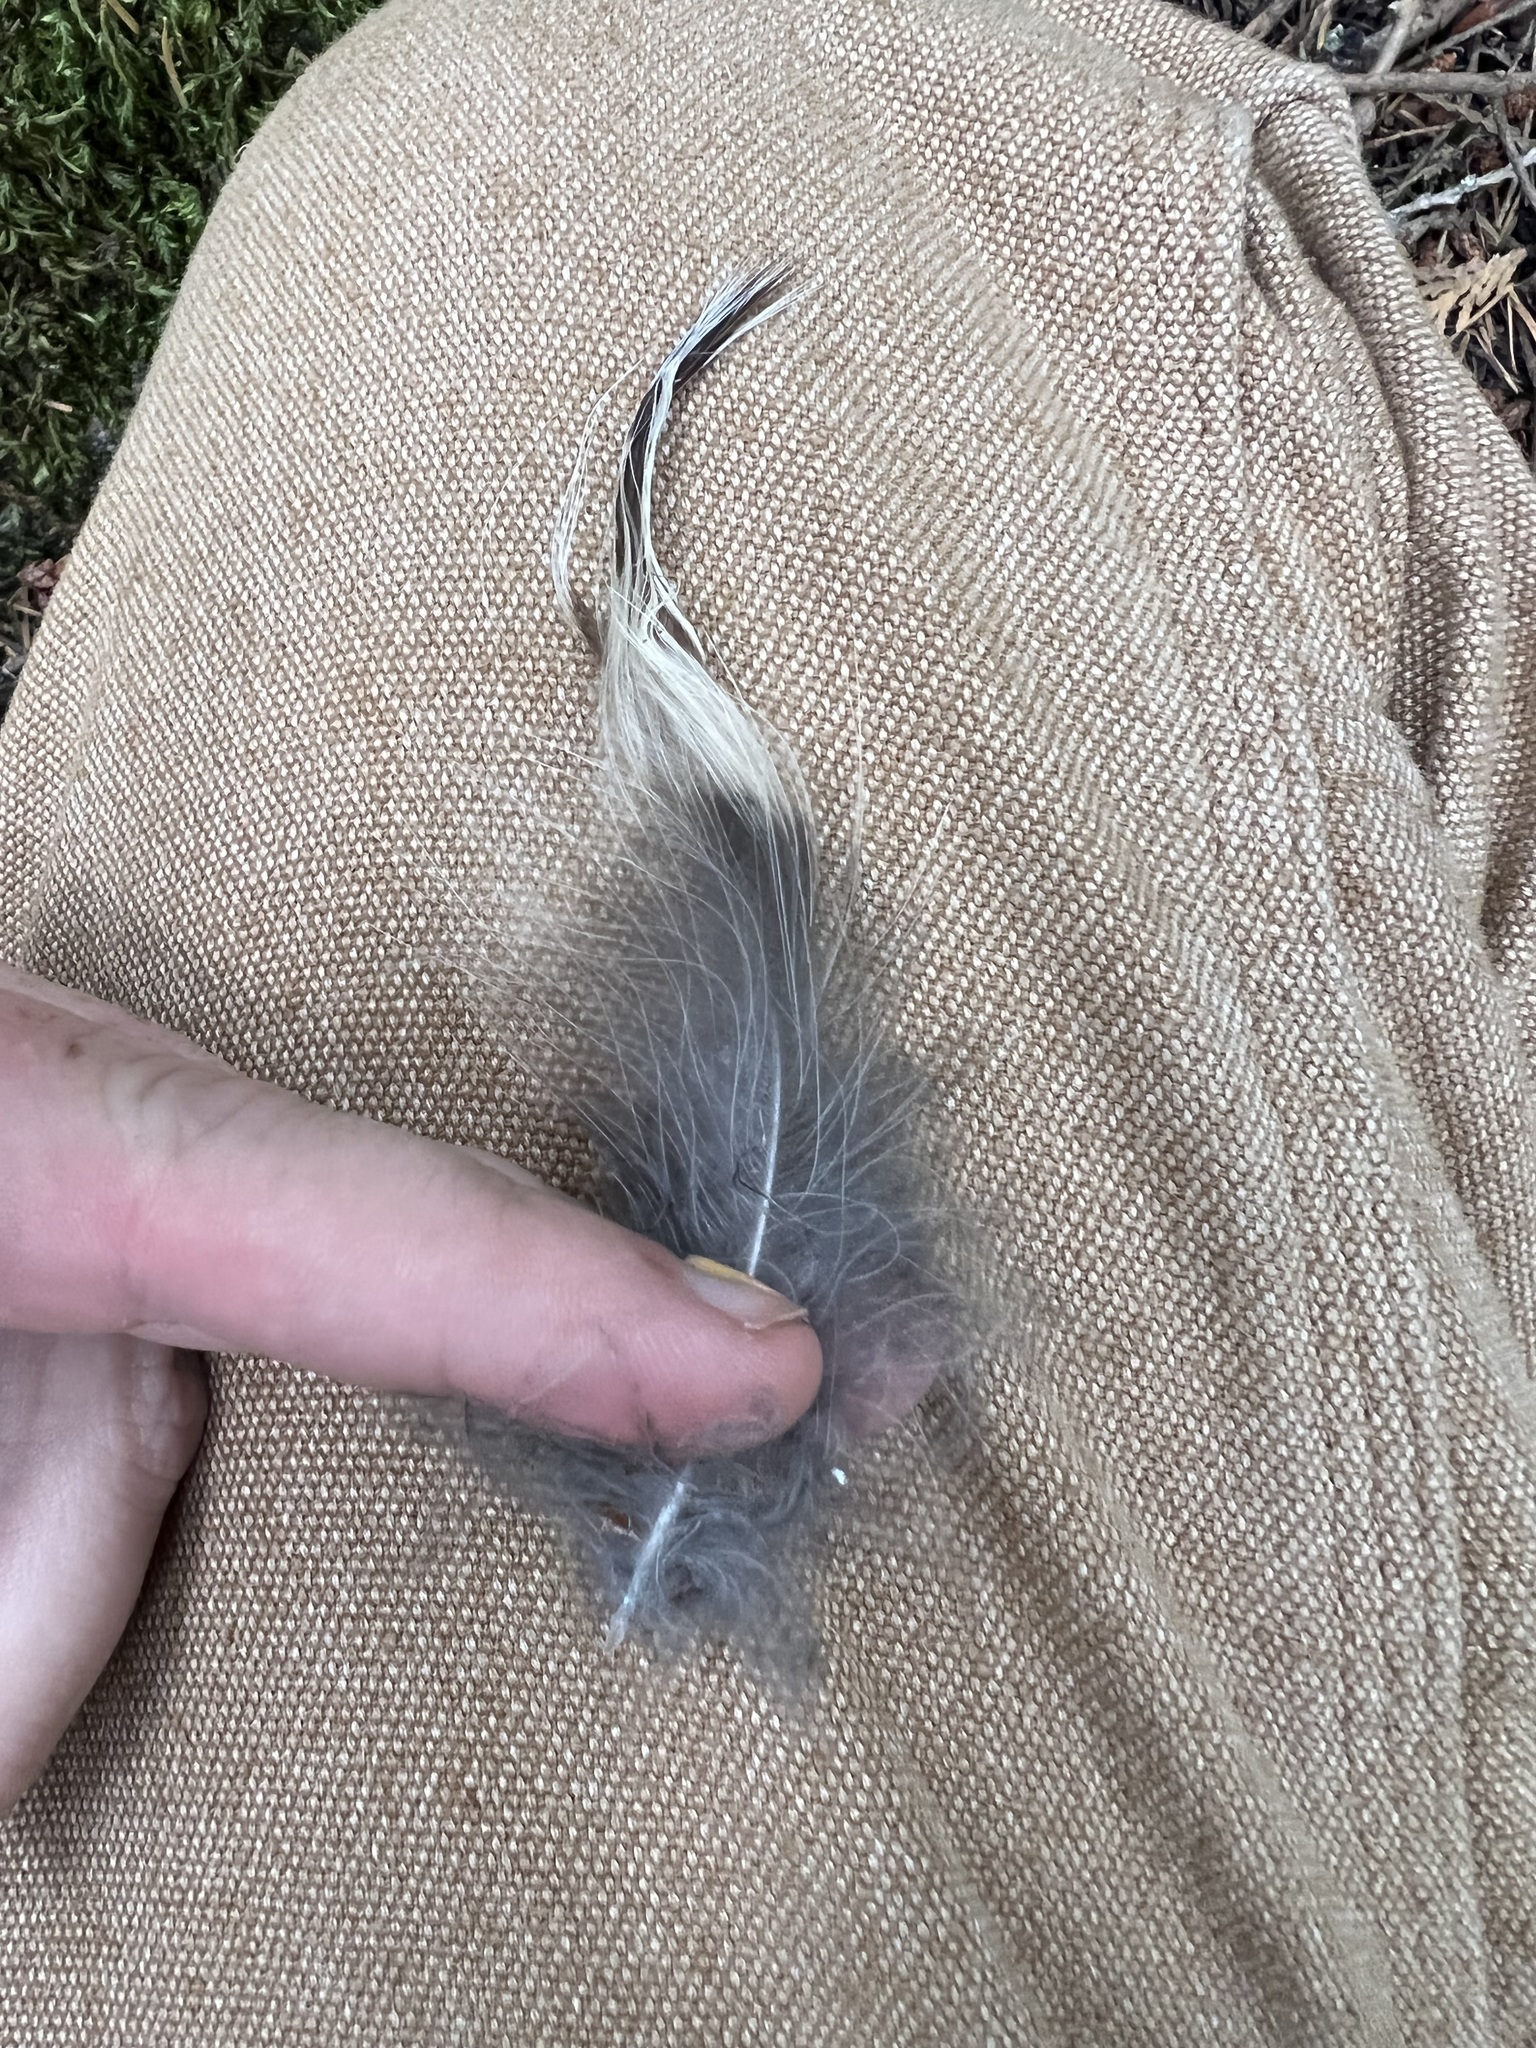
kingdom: Animalia
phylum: Chordata
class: Aves
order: Strigiformes
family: Strigidae
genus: Strix
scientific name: Strix varia
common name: Barred owl
